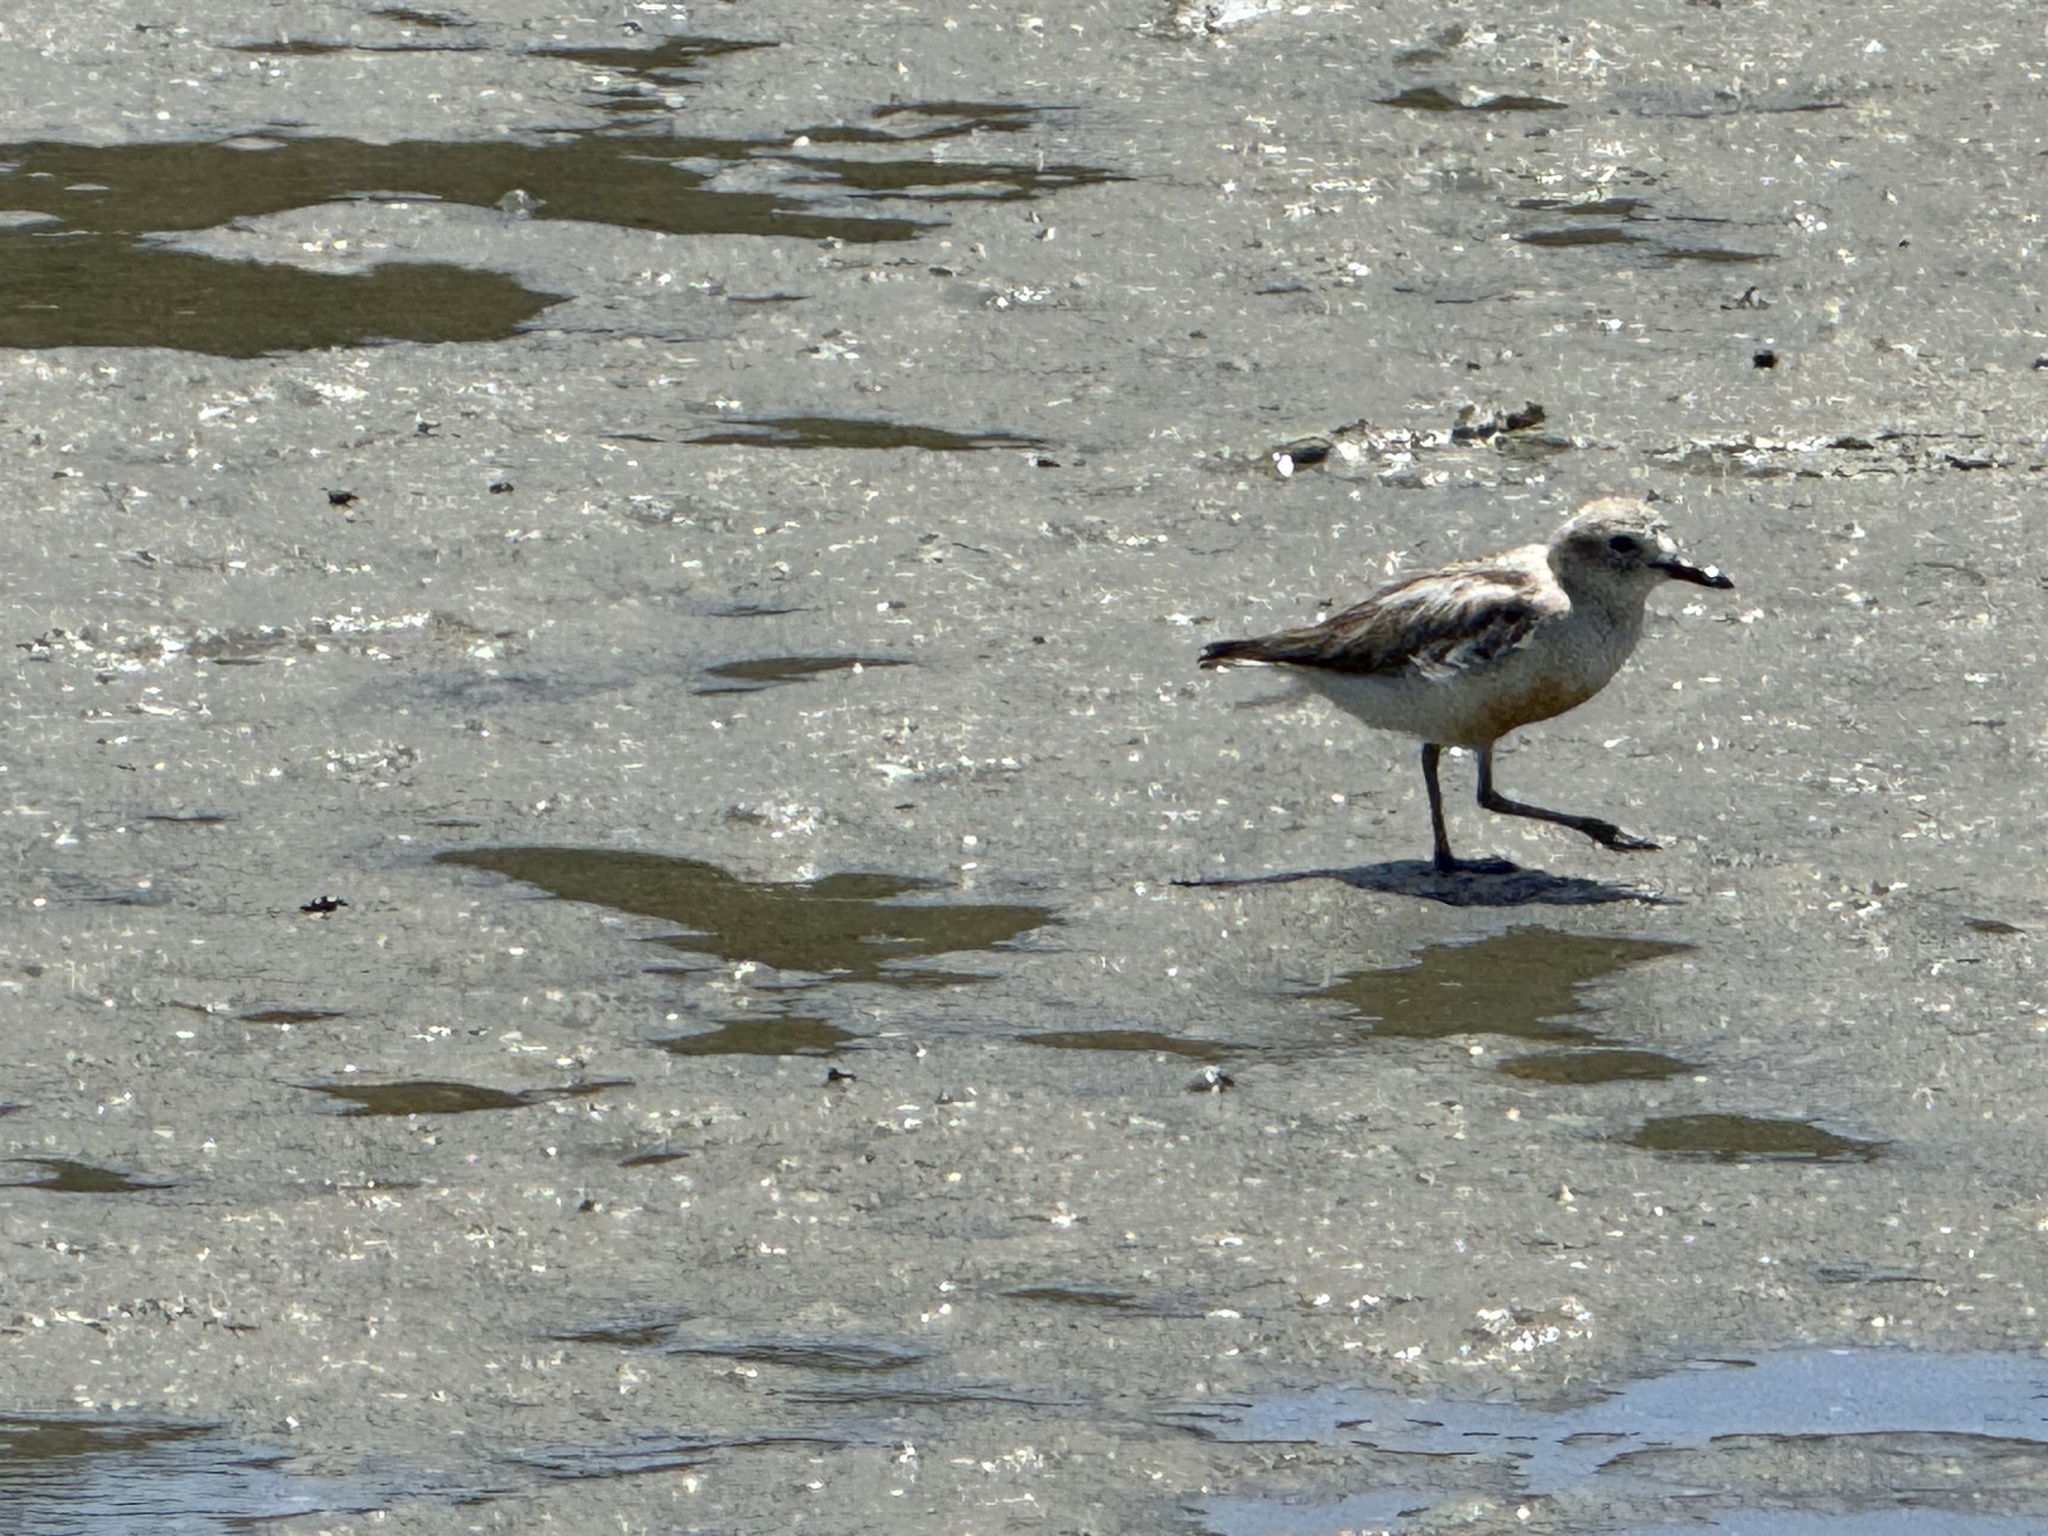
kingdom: Animalia
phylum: Chordata
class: Aves
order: Charadriiformes
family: Charadriidae
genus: Anarhynchus
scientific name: Anarhynchus
